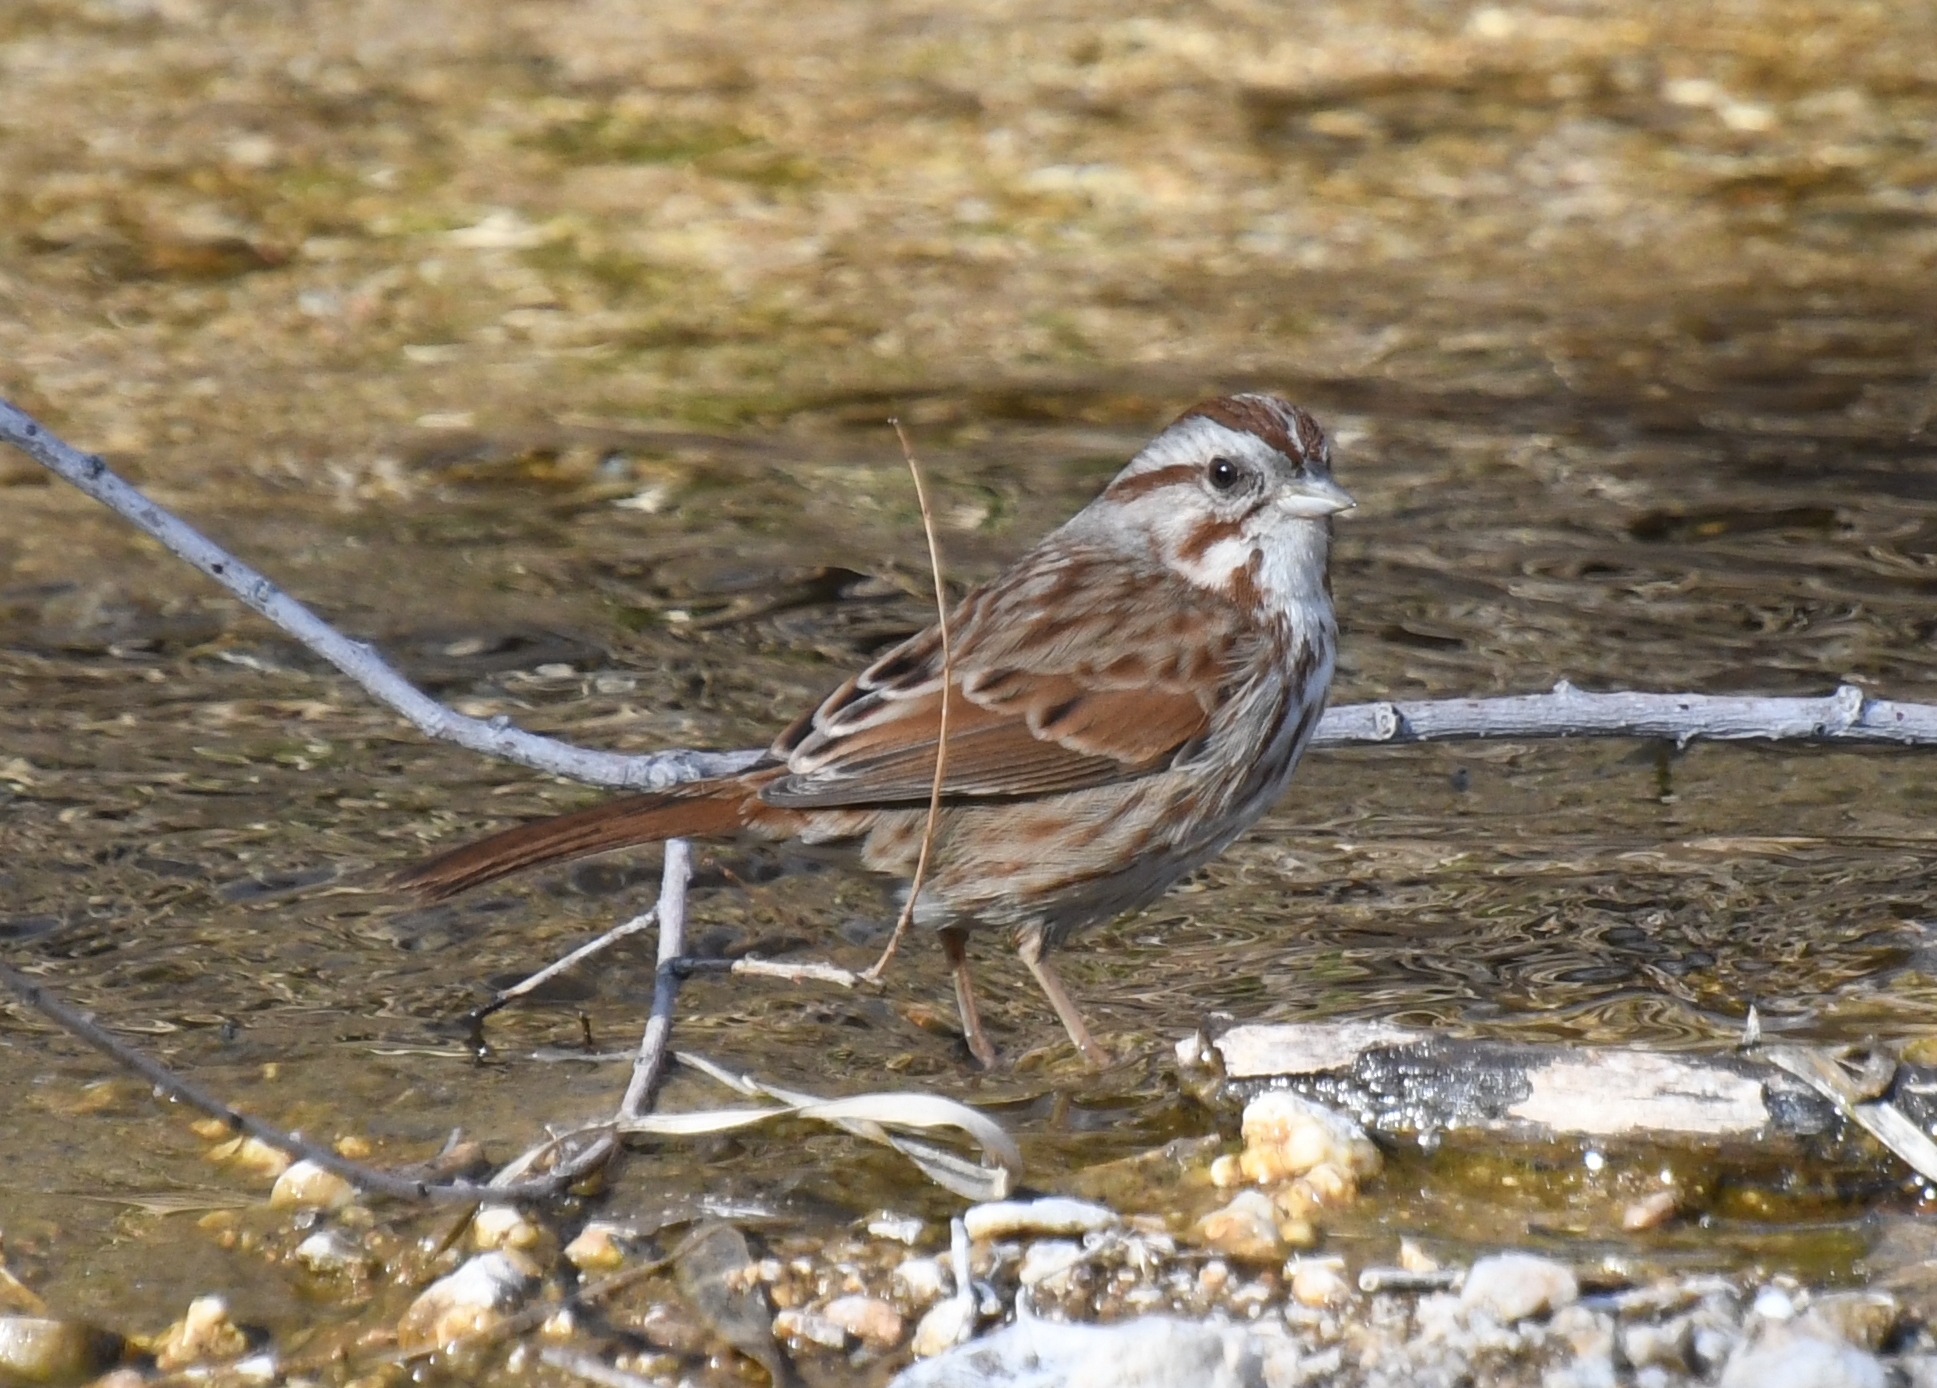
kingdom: Animalia
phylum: Chordata
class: Aves
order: Passeriformes
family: Passerellidae
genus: Melospiza
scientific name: Melospiza melodia
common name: Song sparrow
